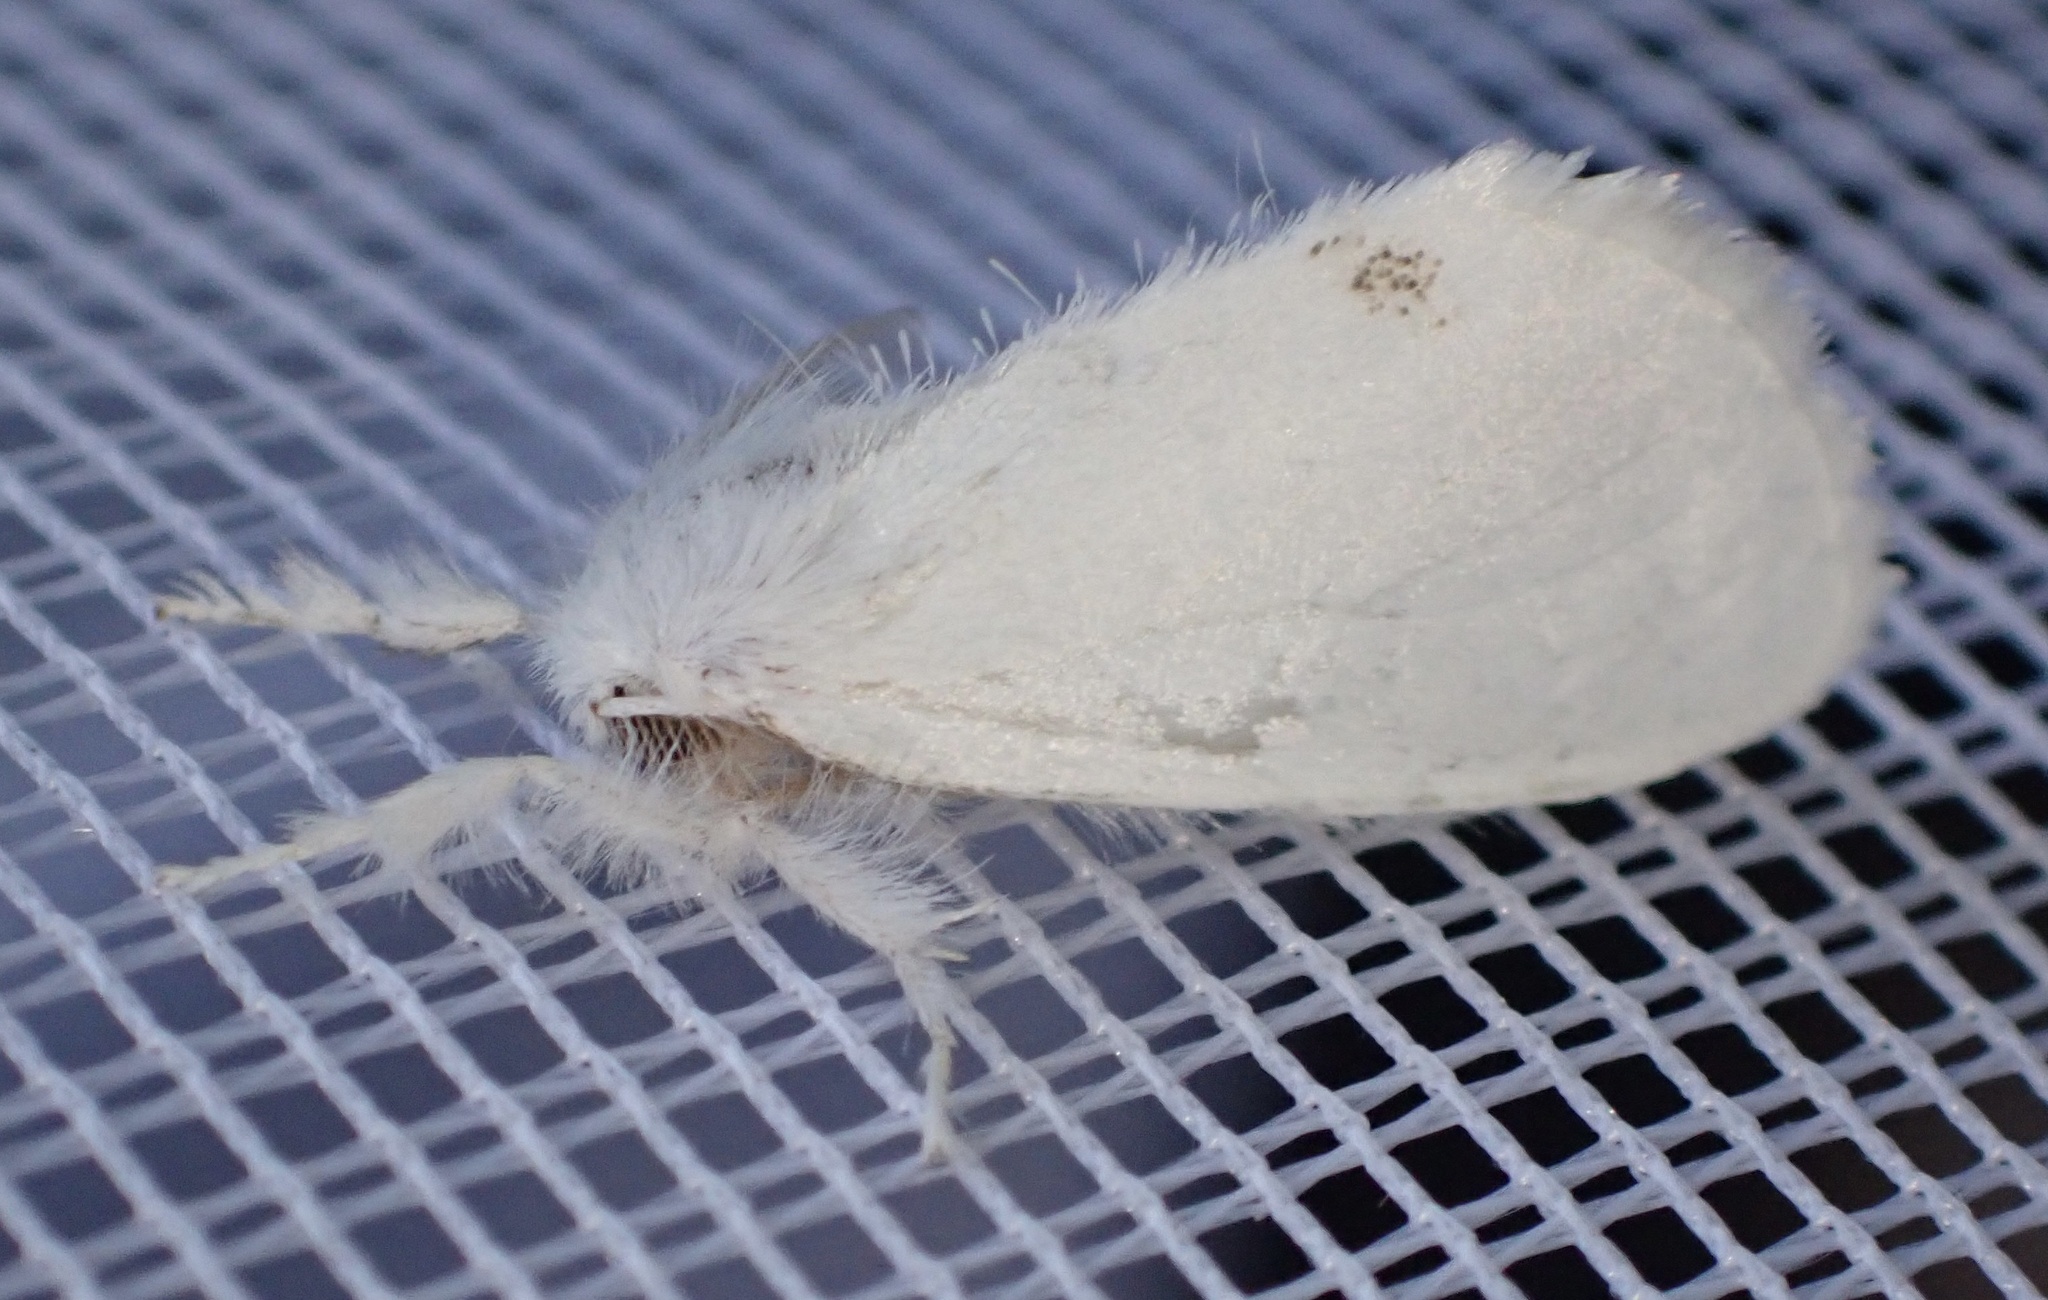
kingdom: Animalia
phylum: Arthropoda
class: Insecta
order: Lepidoptera
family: Erebidae
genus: Sphrageidus
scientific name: Sphrageidus similis
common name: Yellow-tail
